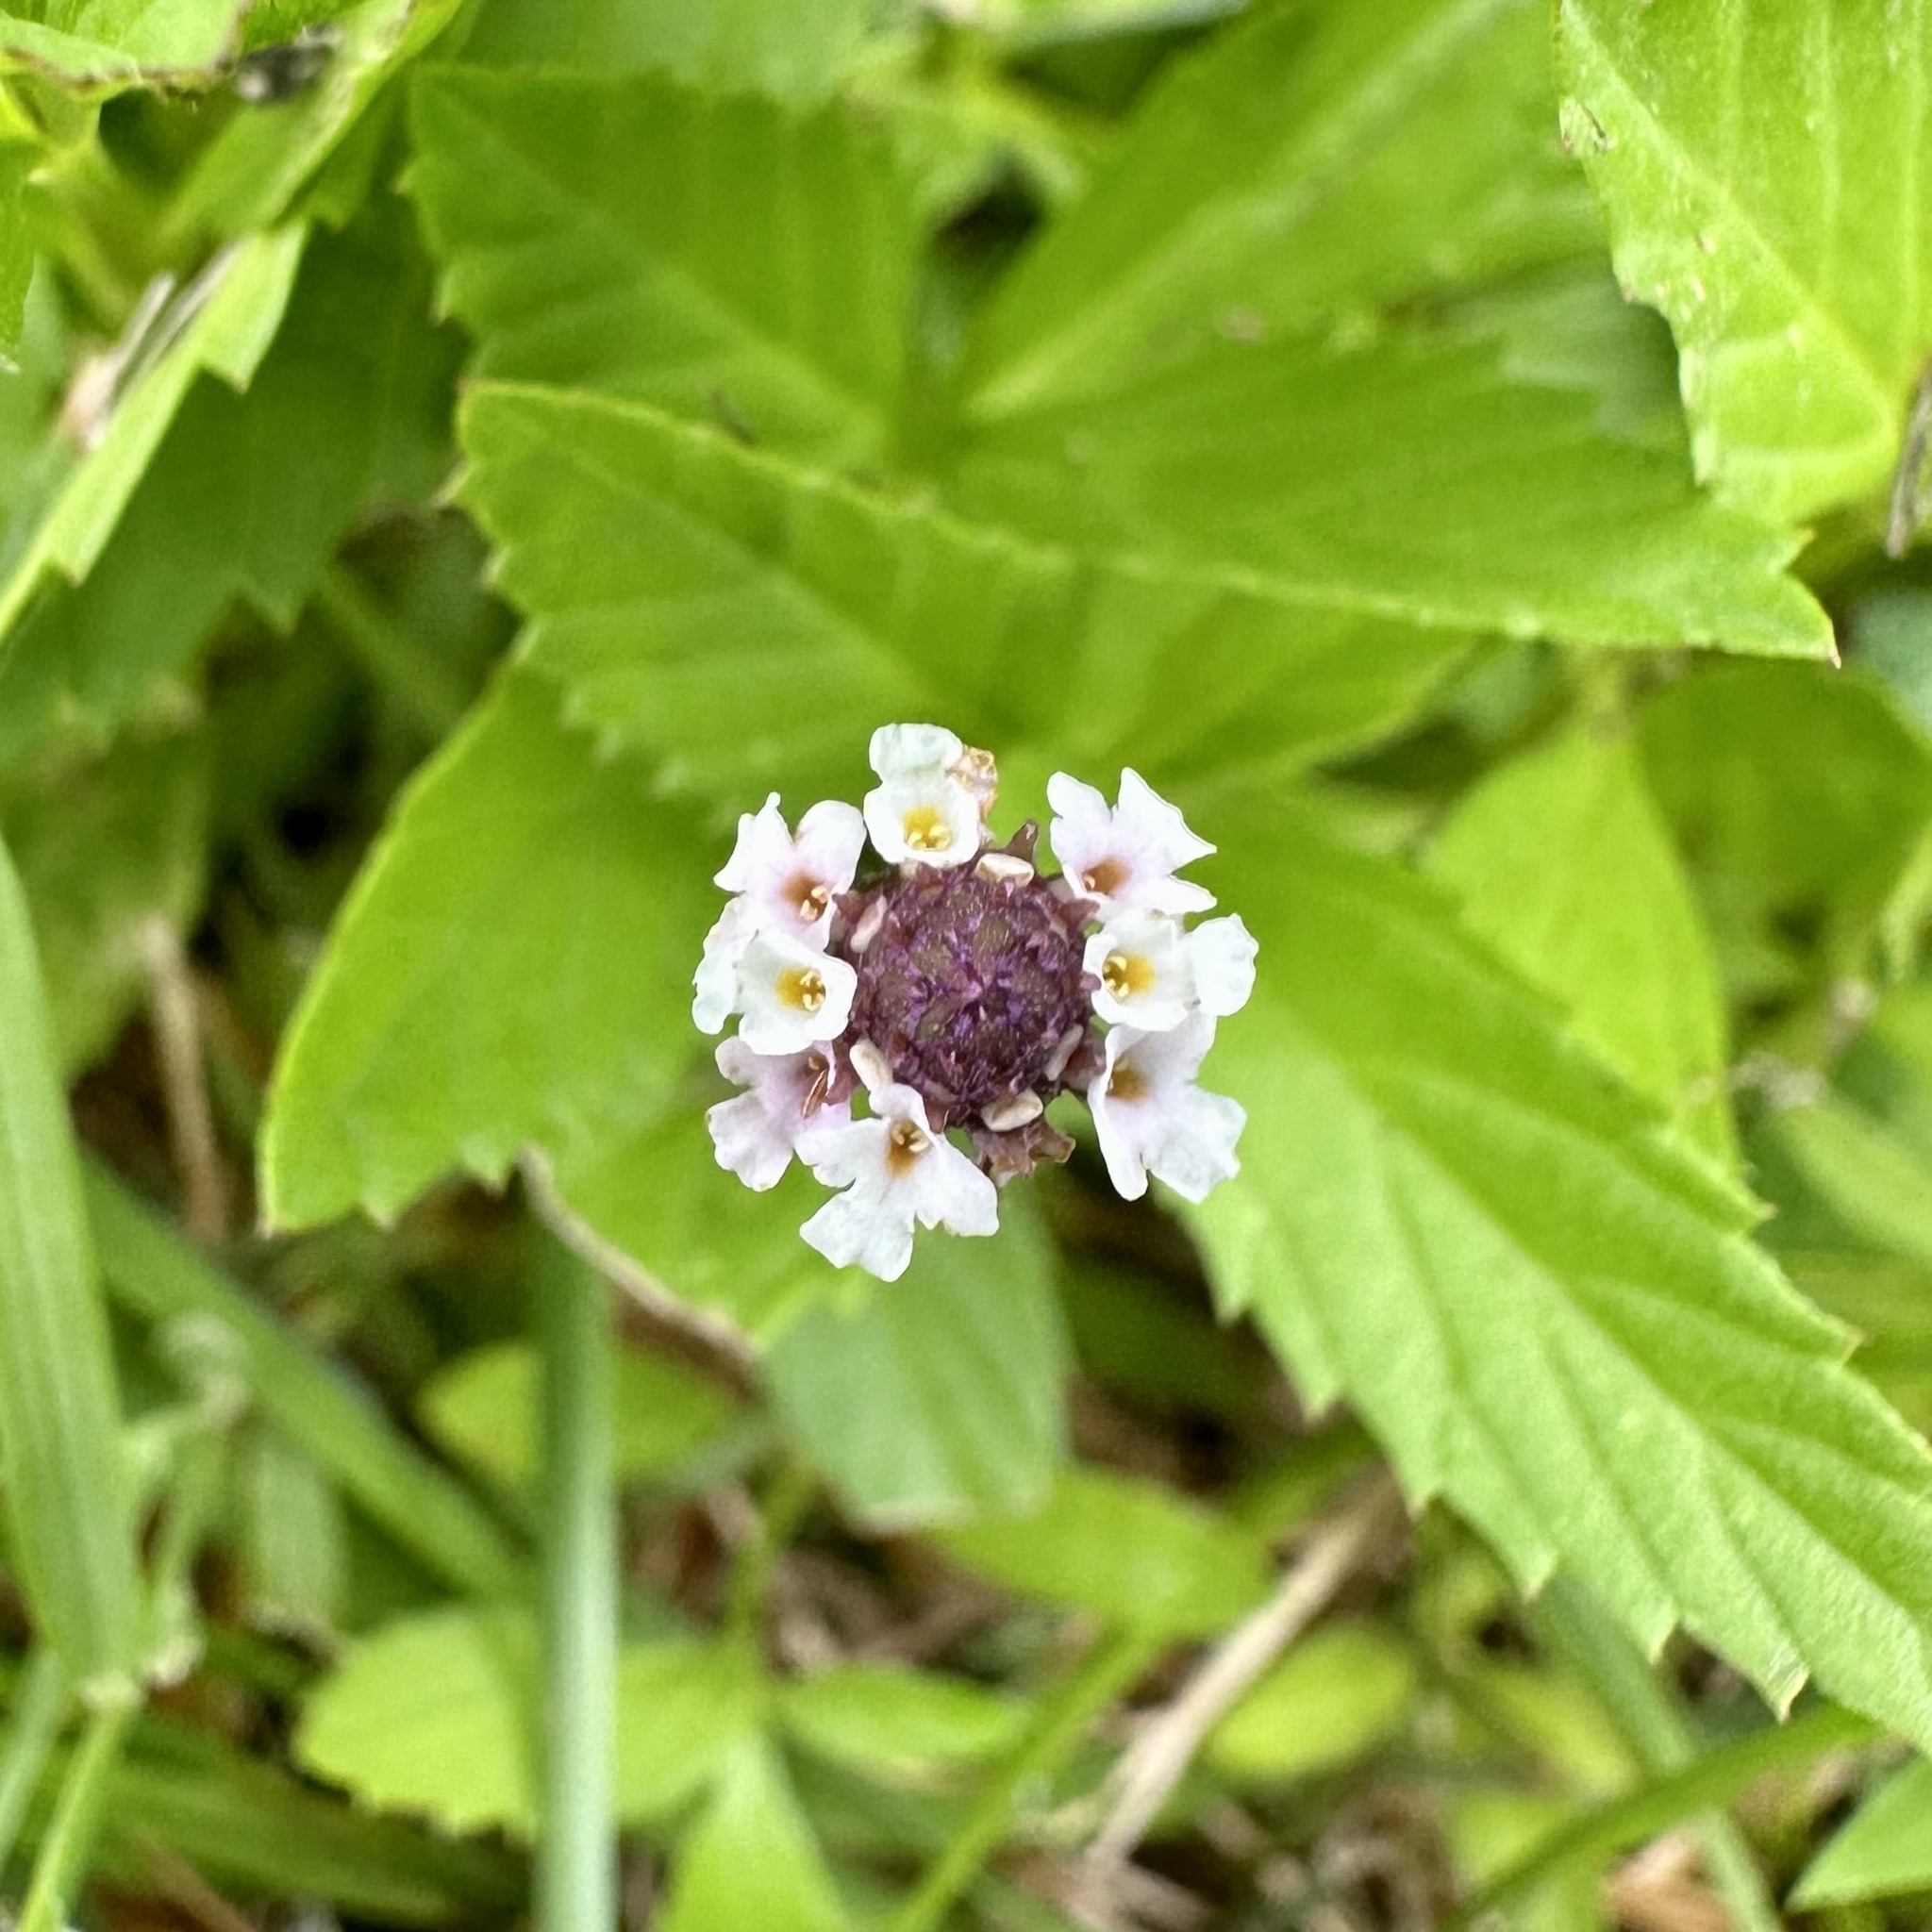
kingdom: Plantae
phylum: Tracheophyta
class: Magnoliopsida
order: Lamiales
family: Verbenaceae
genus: Phyla
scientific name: Phyla lanceolata
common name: Northern fogfruit
